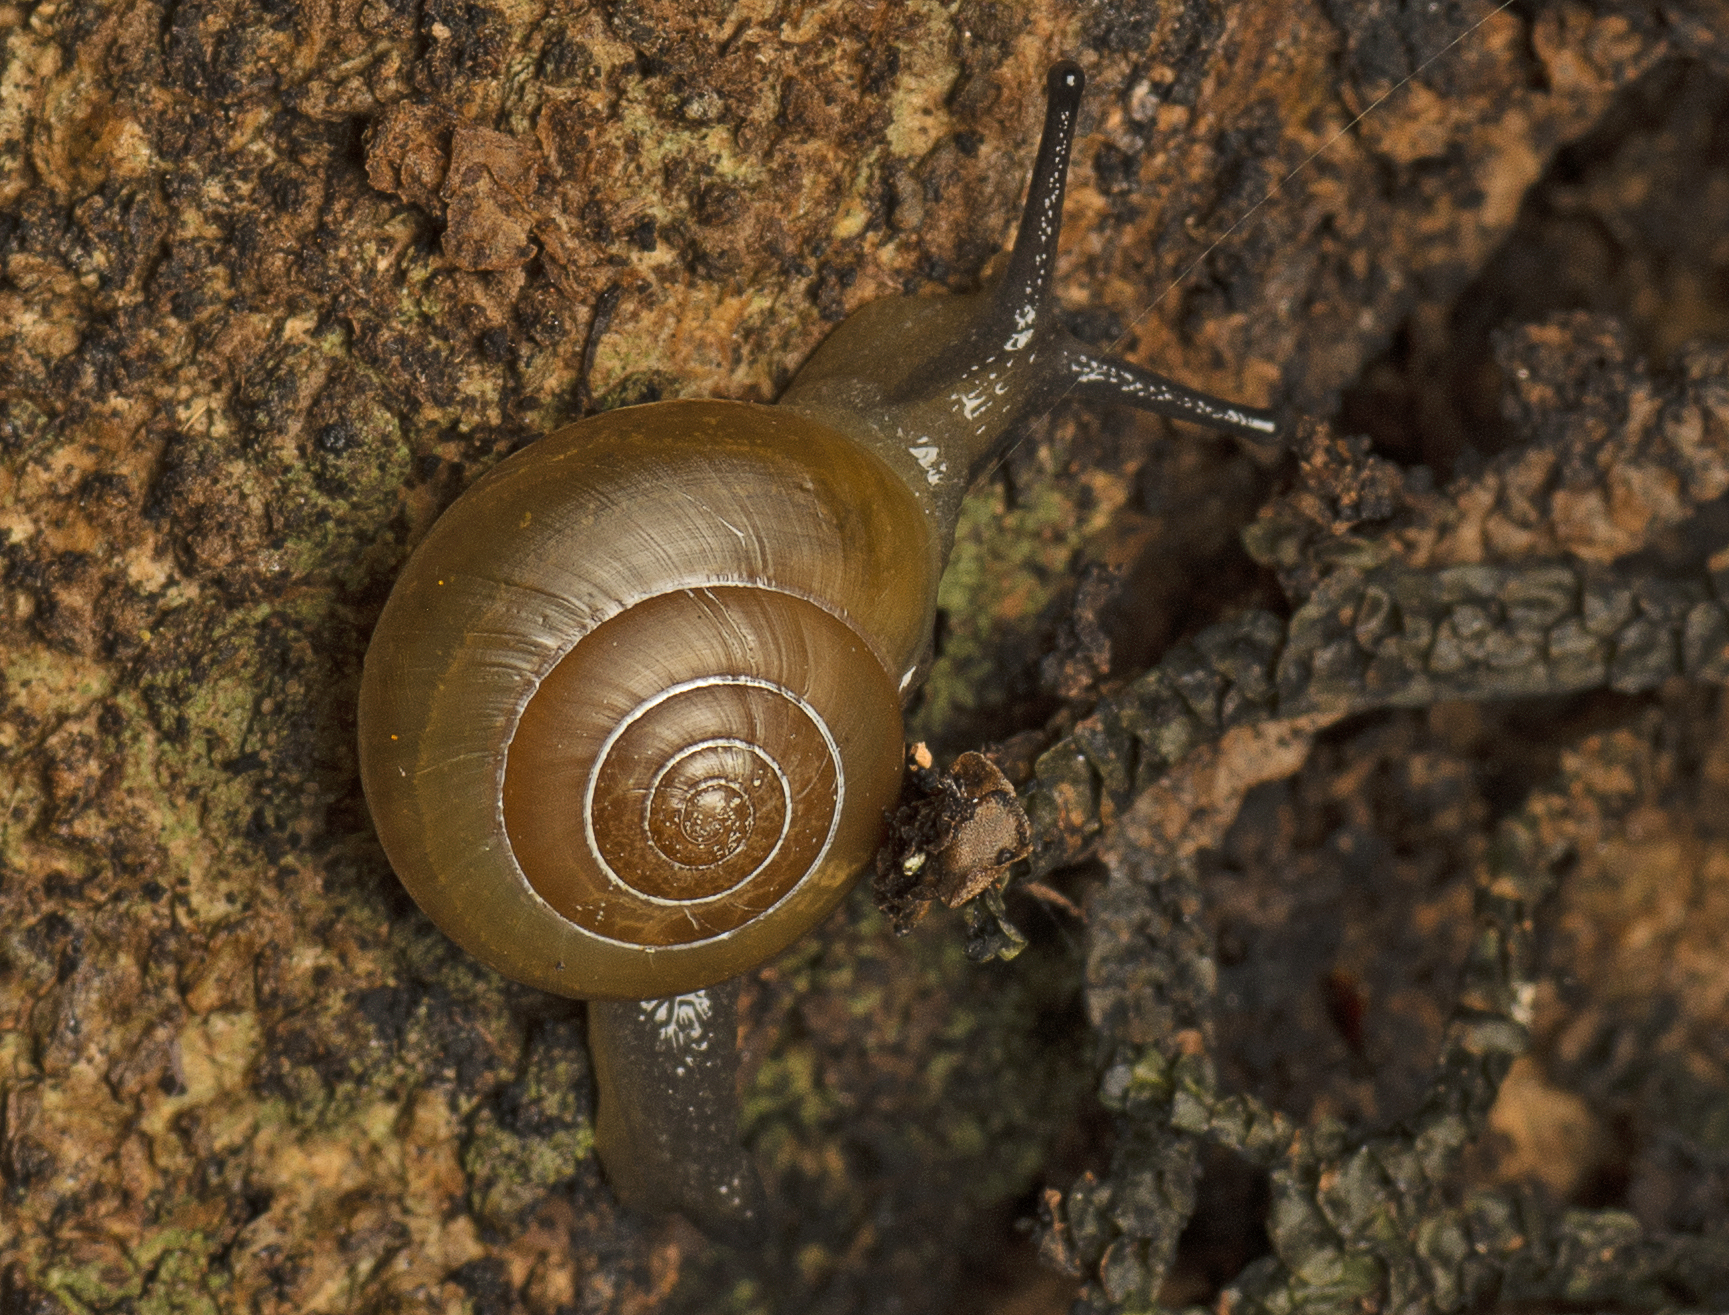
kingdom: Animalia
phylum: Mollusca
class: Gastropoda
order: Stylommatophora
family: Helicarionidae
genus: Dendronitor
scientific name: Dendronitor inscensus
